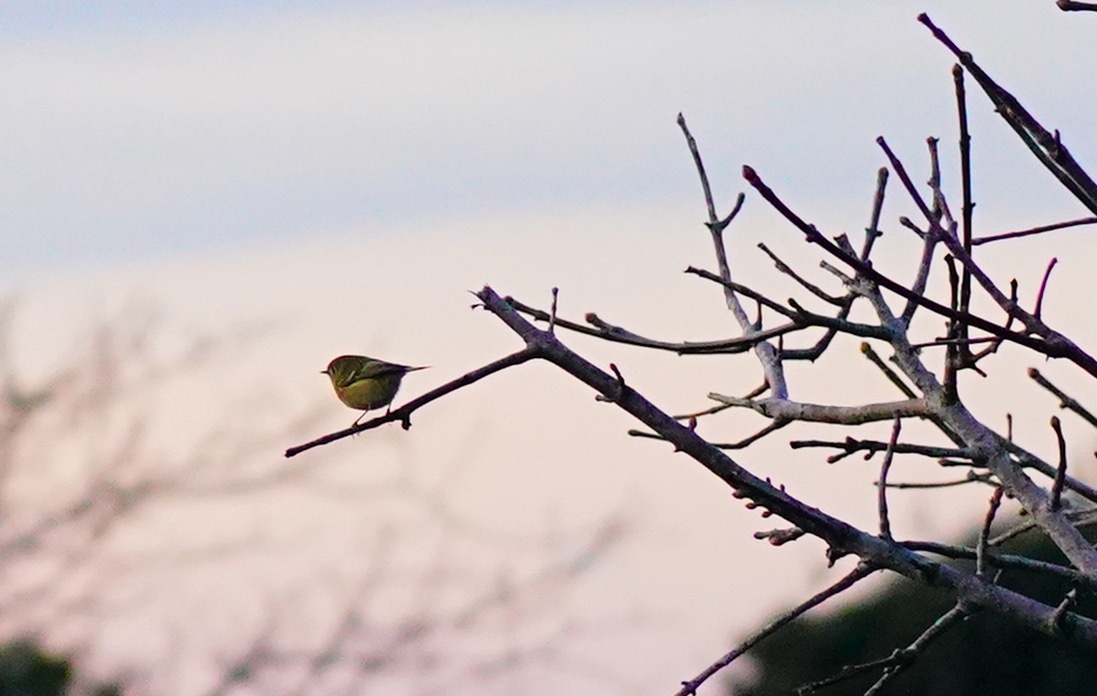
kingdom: Animalia
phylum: Chordata
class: Aves
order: Passeriformes
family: Regulidae
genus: Regulus
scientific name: Regulus calendula
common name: Ruby-crowned kinglet
